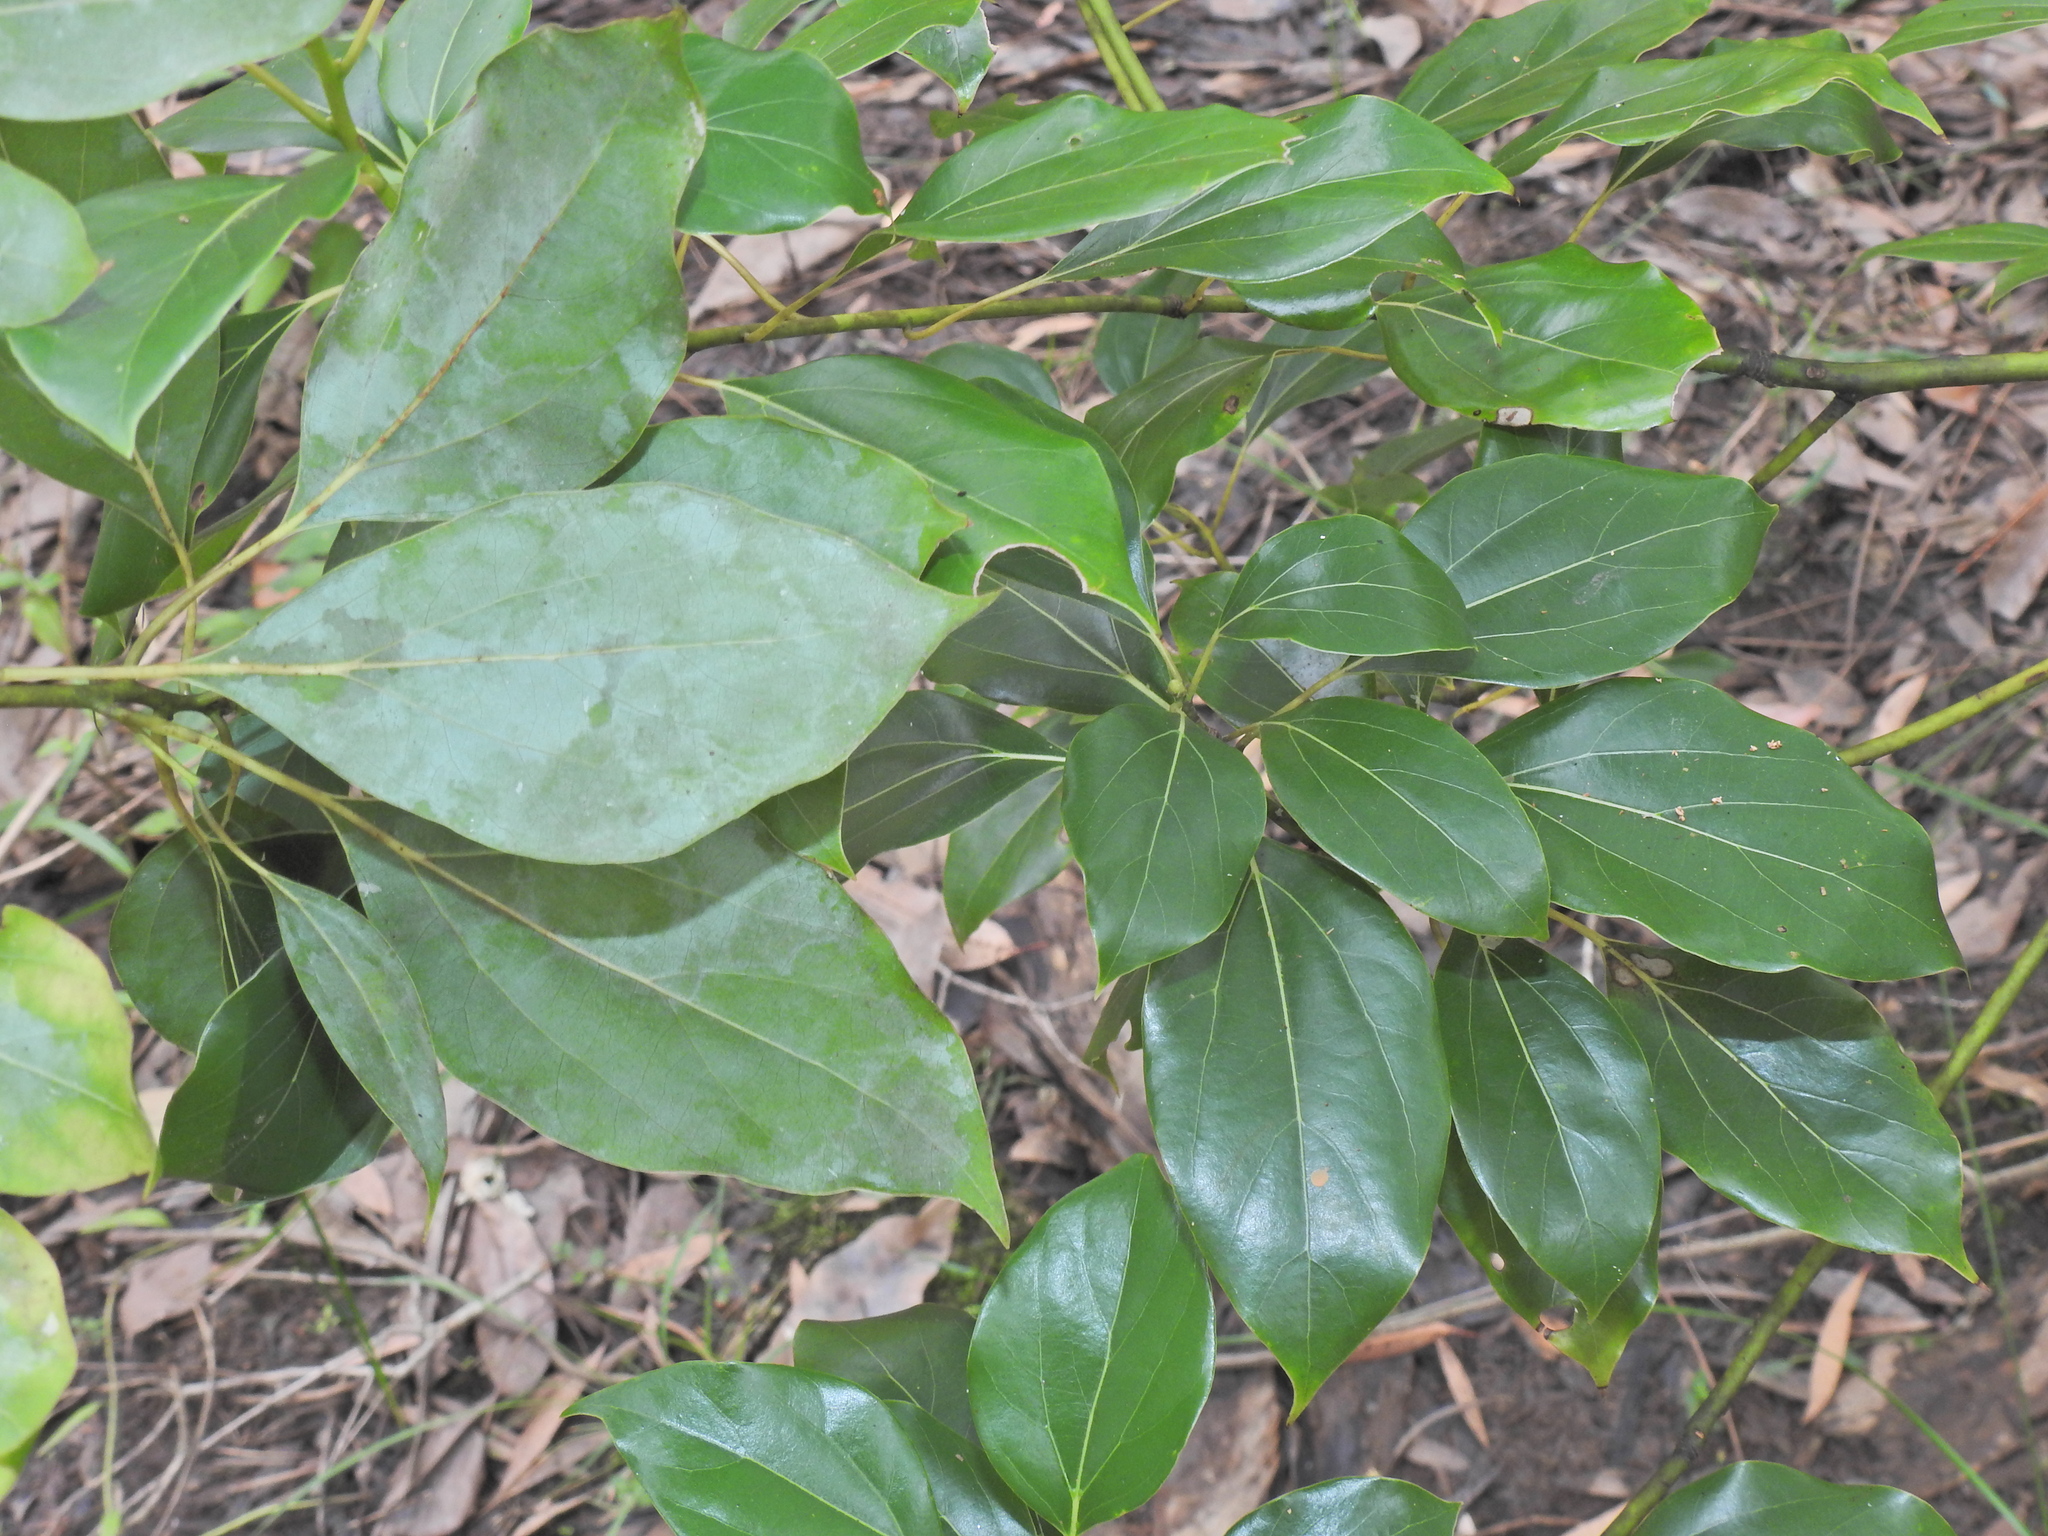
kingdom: Plantae
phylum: Tracheophyta
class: Magnoliopsida
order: Laurales
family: Lauraceae
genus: Cinnamomum
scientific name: Cinnamomum camphora
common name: Camphortree
